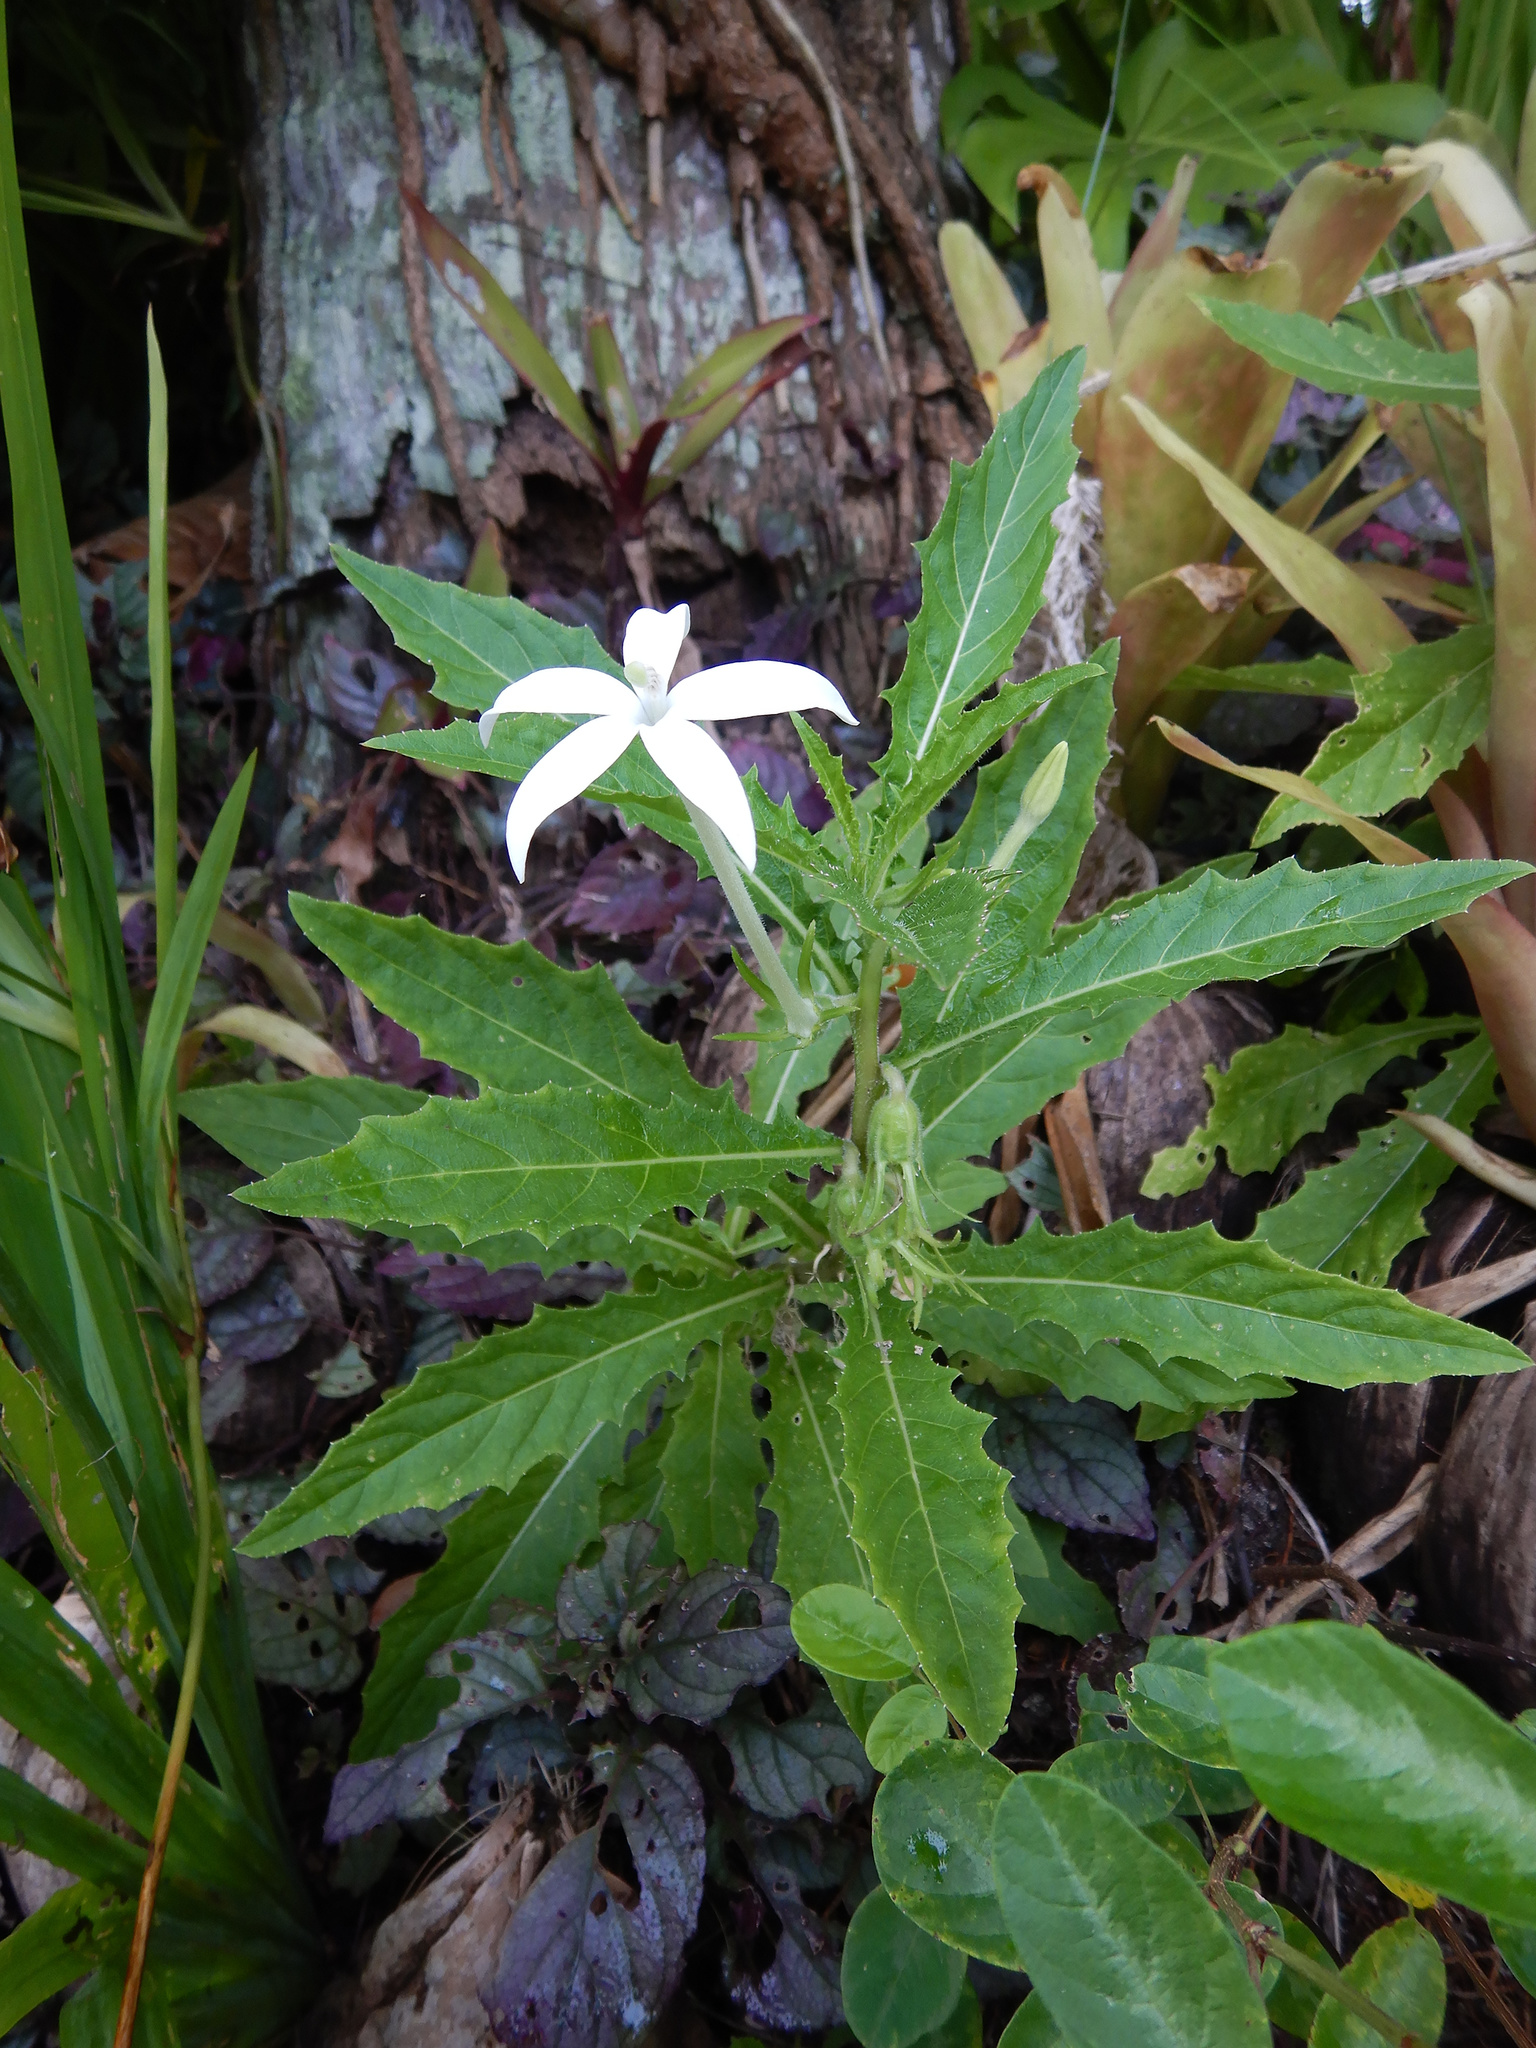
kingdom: Plantae
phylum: Tracheophyta
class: Magnoliopsida
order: Asterales
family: Campanulaceae
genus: Hippobroma
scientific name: Hippobroma longiflora
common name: Madamfate
